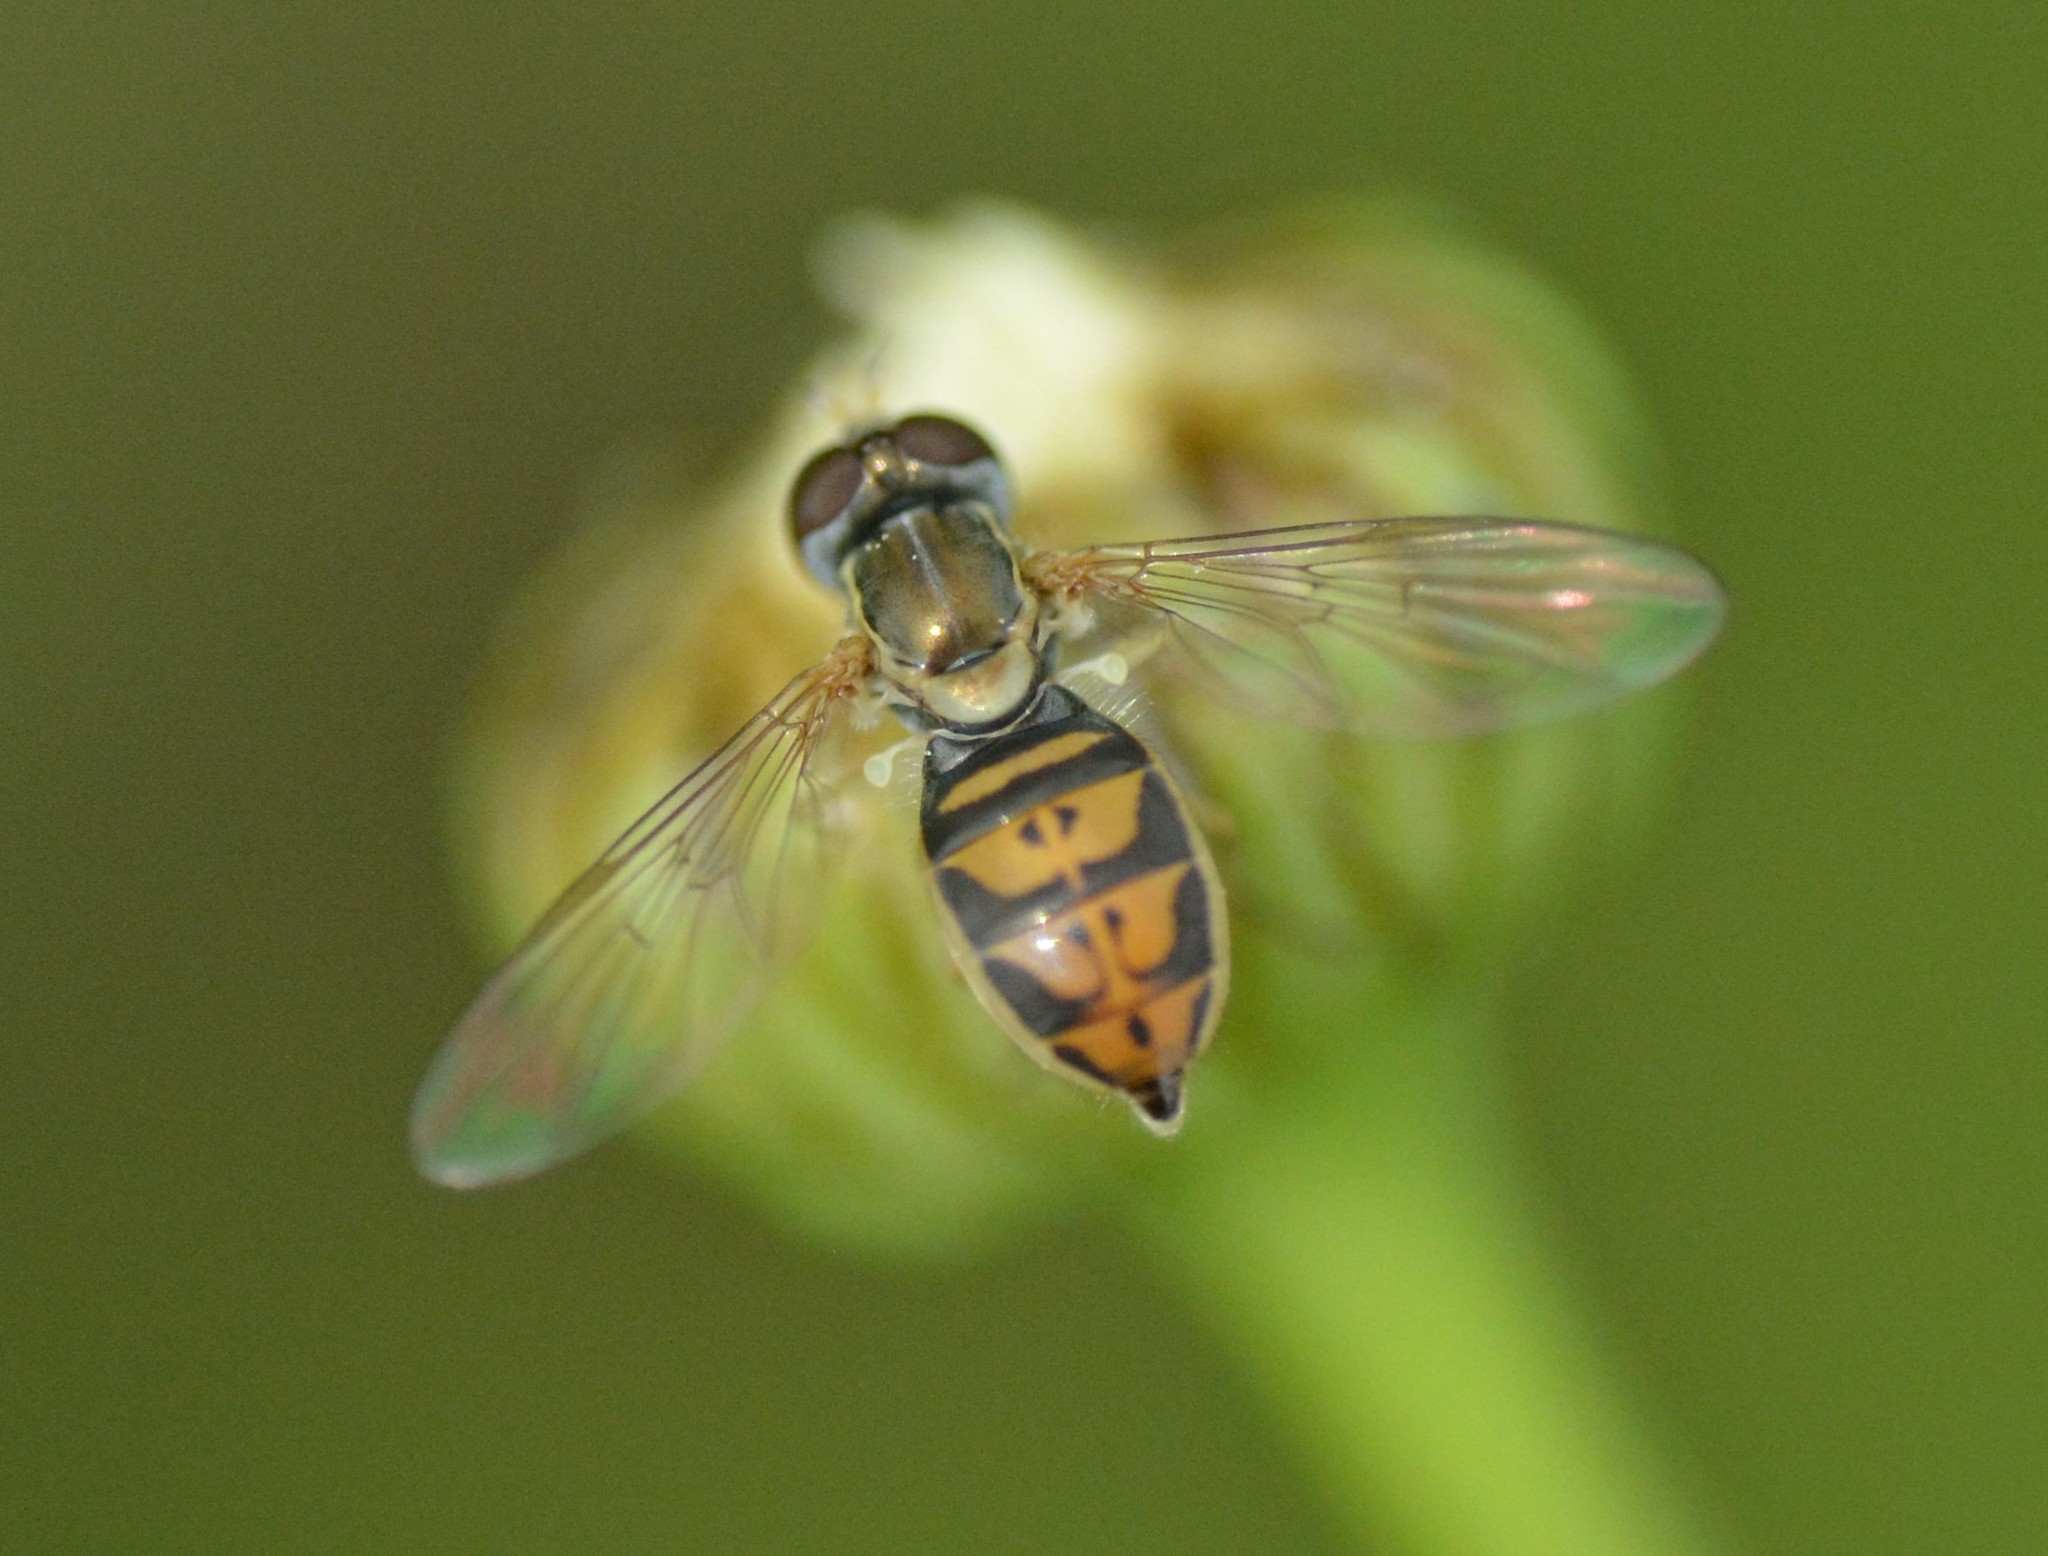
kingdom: Animalia
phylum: Arthropoda
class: Insecta
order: Diptera
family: Syrphidae
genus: Toxomerus
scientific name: Toxomerus marginatus
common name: Syrphid fly
